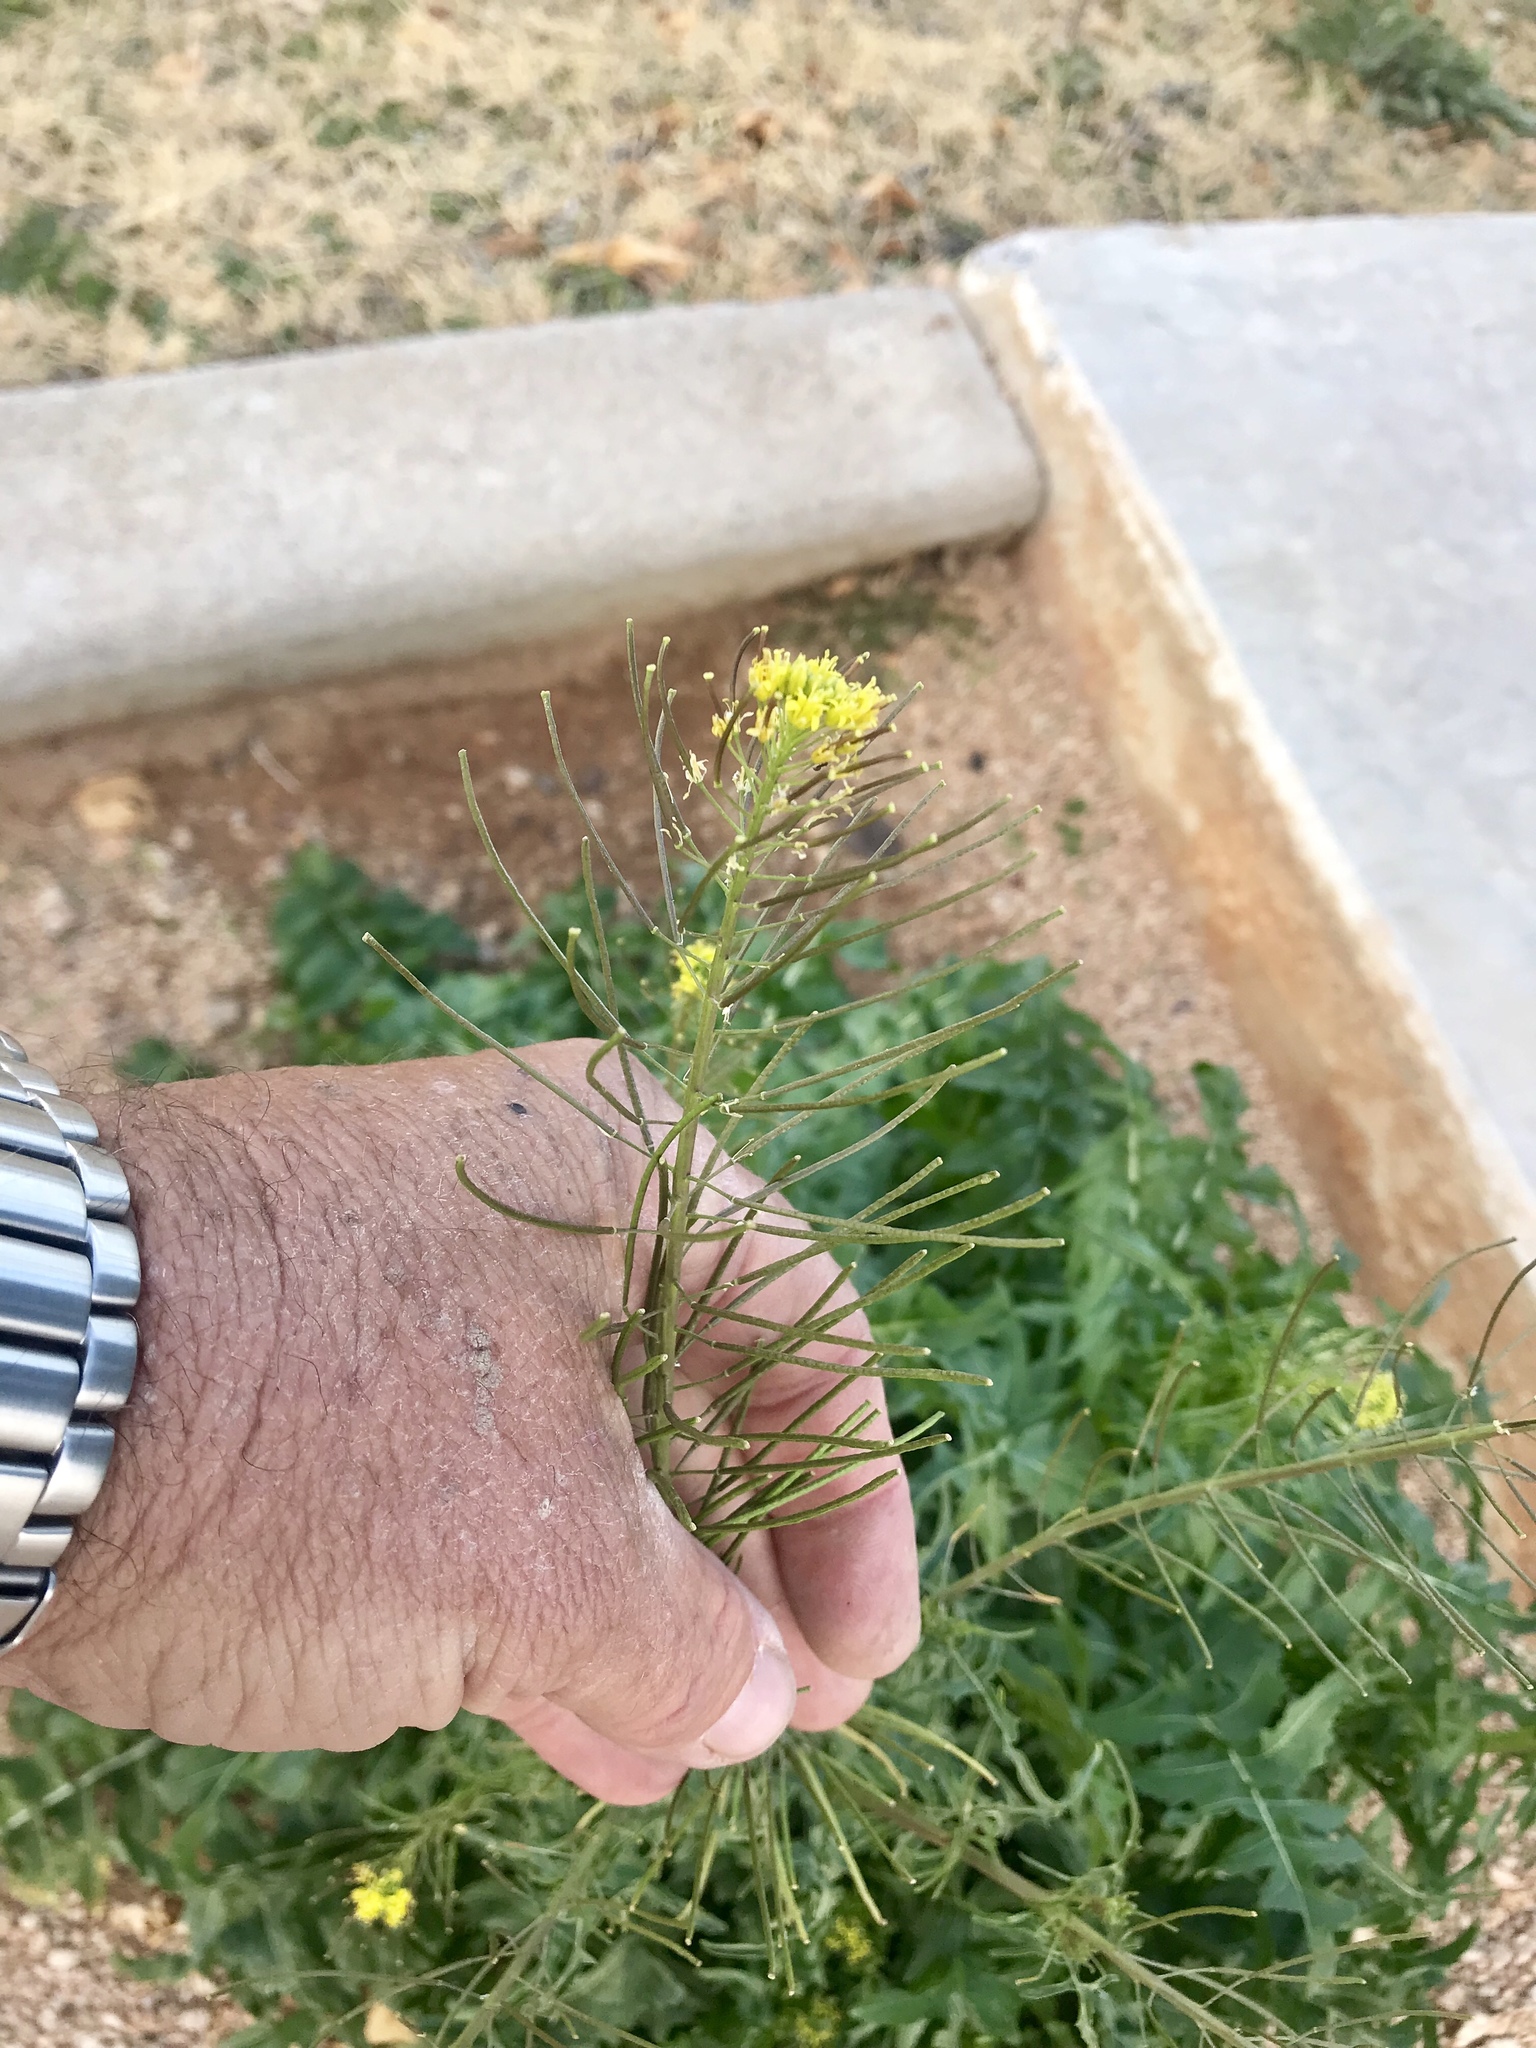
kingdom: Plantae
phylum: Tracheophyta
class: Magnoliopsida
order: Brassicales
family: Brassicaceae
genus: Sisymbrium
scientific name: Sisymbrium irio
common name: London rocket
